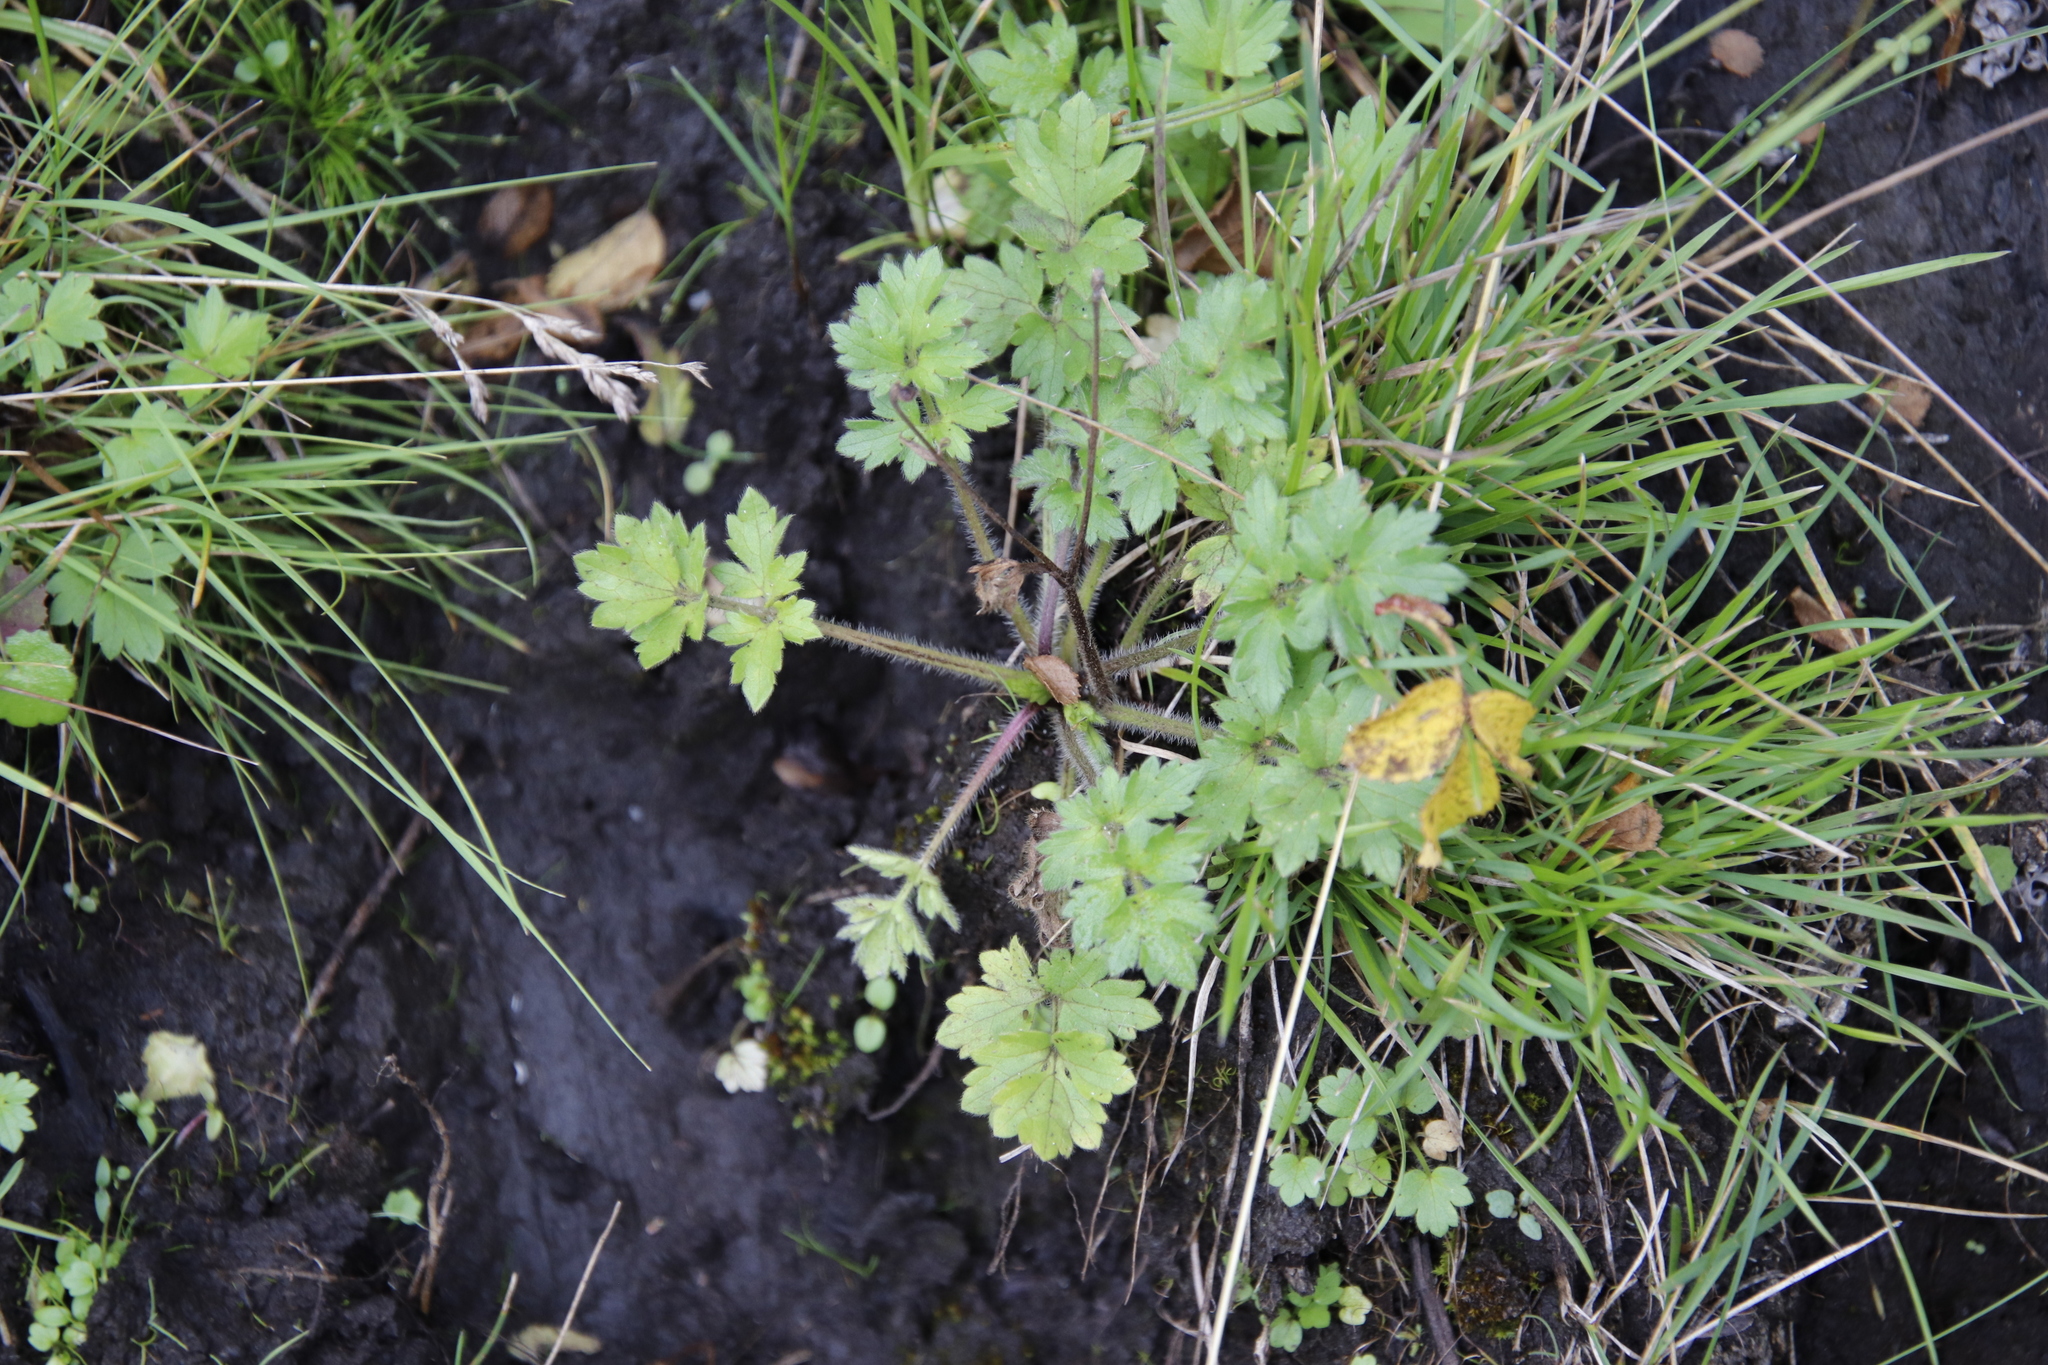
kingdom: Plantae
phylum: Tracheophyta
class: Magnoliopsida
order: Ranunculales
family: Ranunculaceae
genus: Ranunculus
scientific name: Ranunculus multifidus
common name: Wild buttercup
